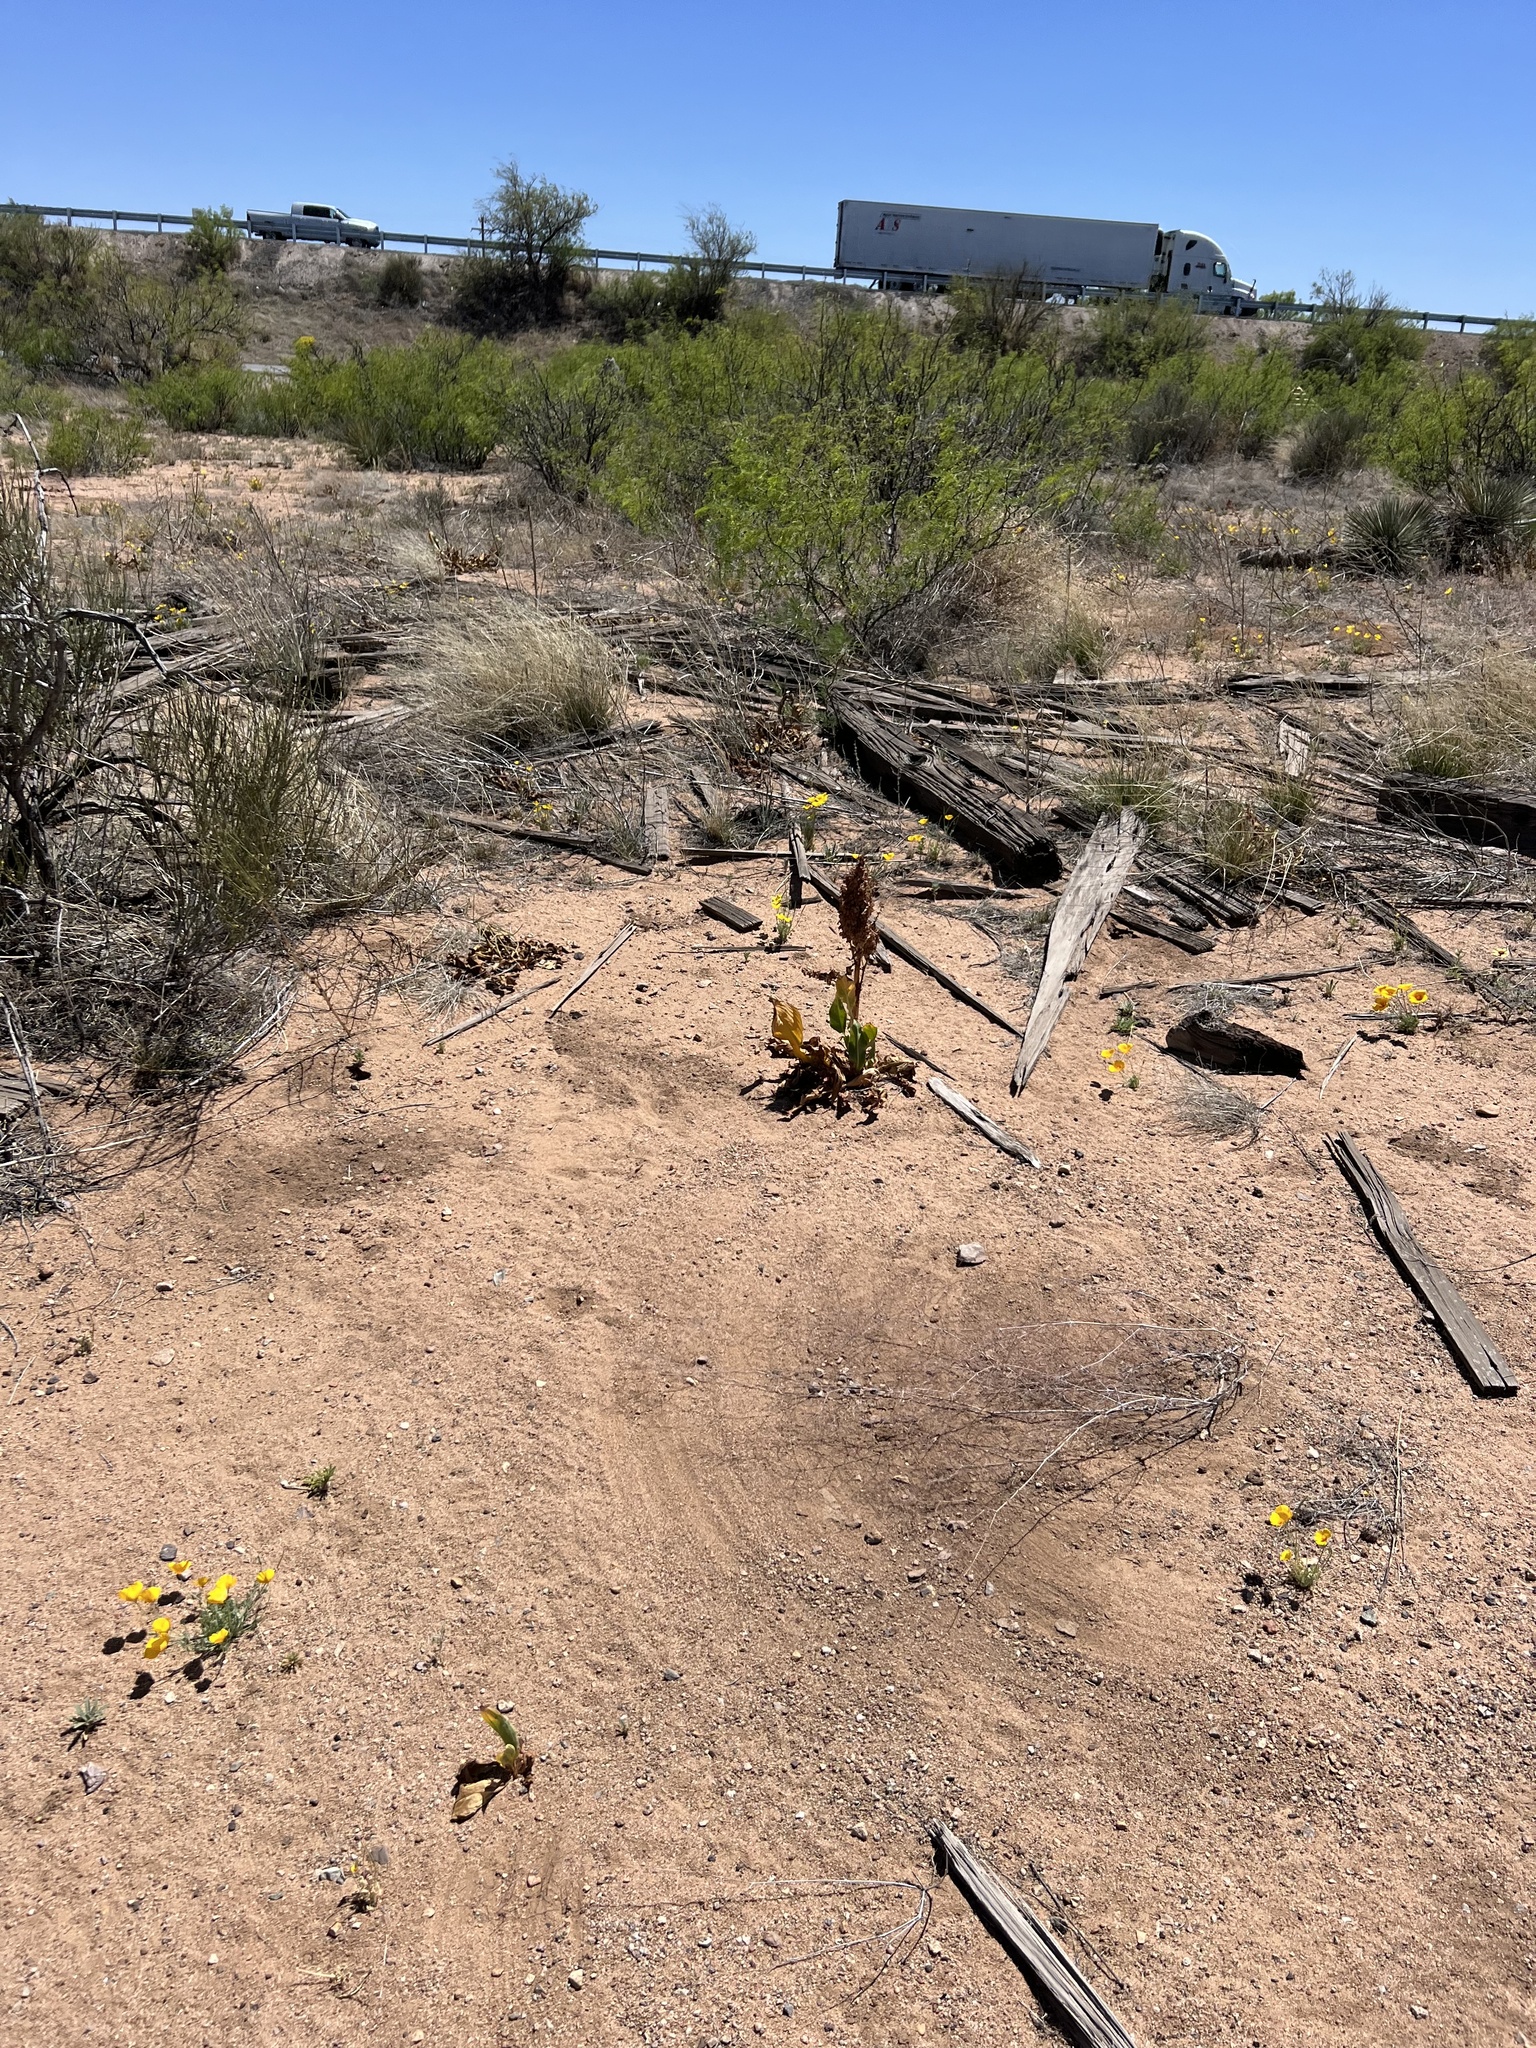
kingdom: Plantae
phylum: Tracheophyta
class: Magnoliopsida
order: Caryophyllales
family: Polygonaceae
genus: Rumex
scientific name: Rumex hymenosepalus
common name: Ganagra
